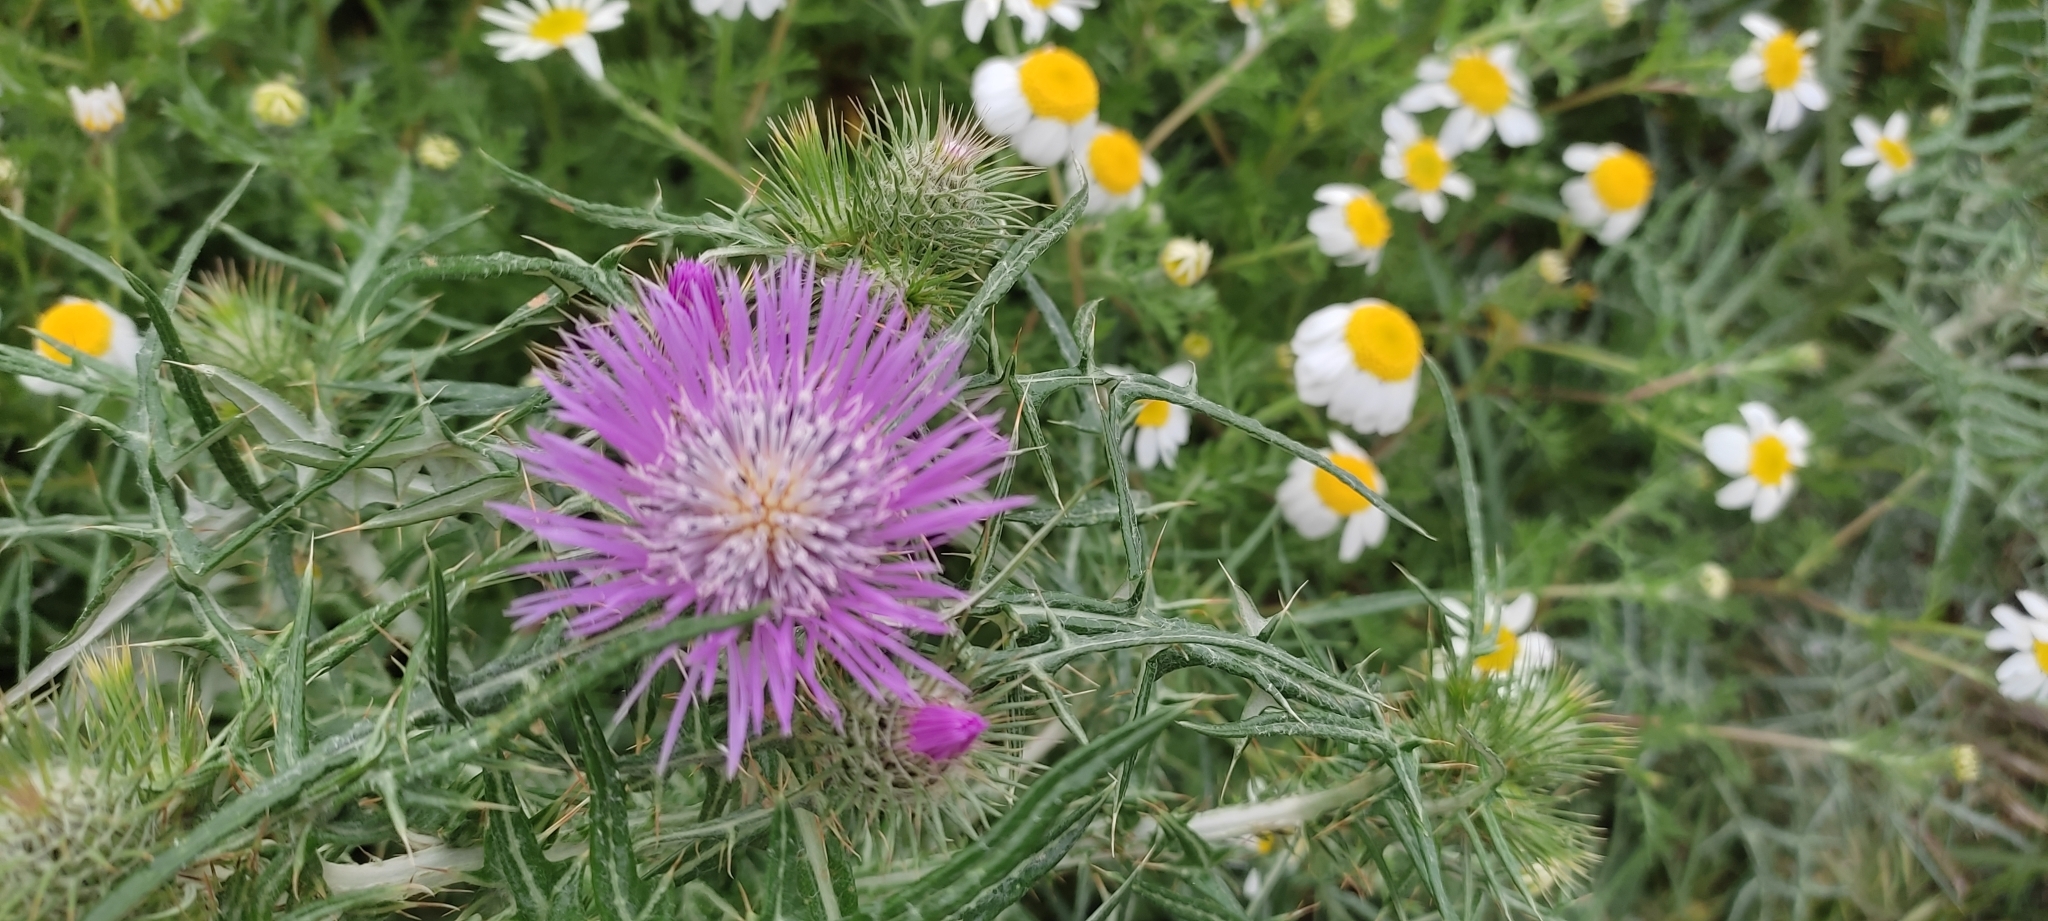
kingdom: Plantae
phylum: Tracheophyta
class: Magnoliopsida
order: Asterales
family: Asteraceae
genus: Galactites
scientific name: Galactites tomentosa
